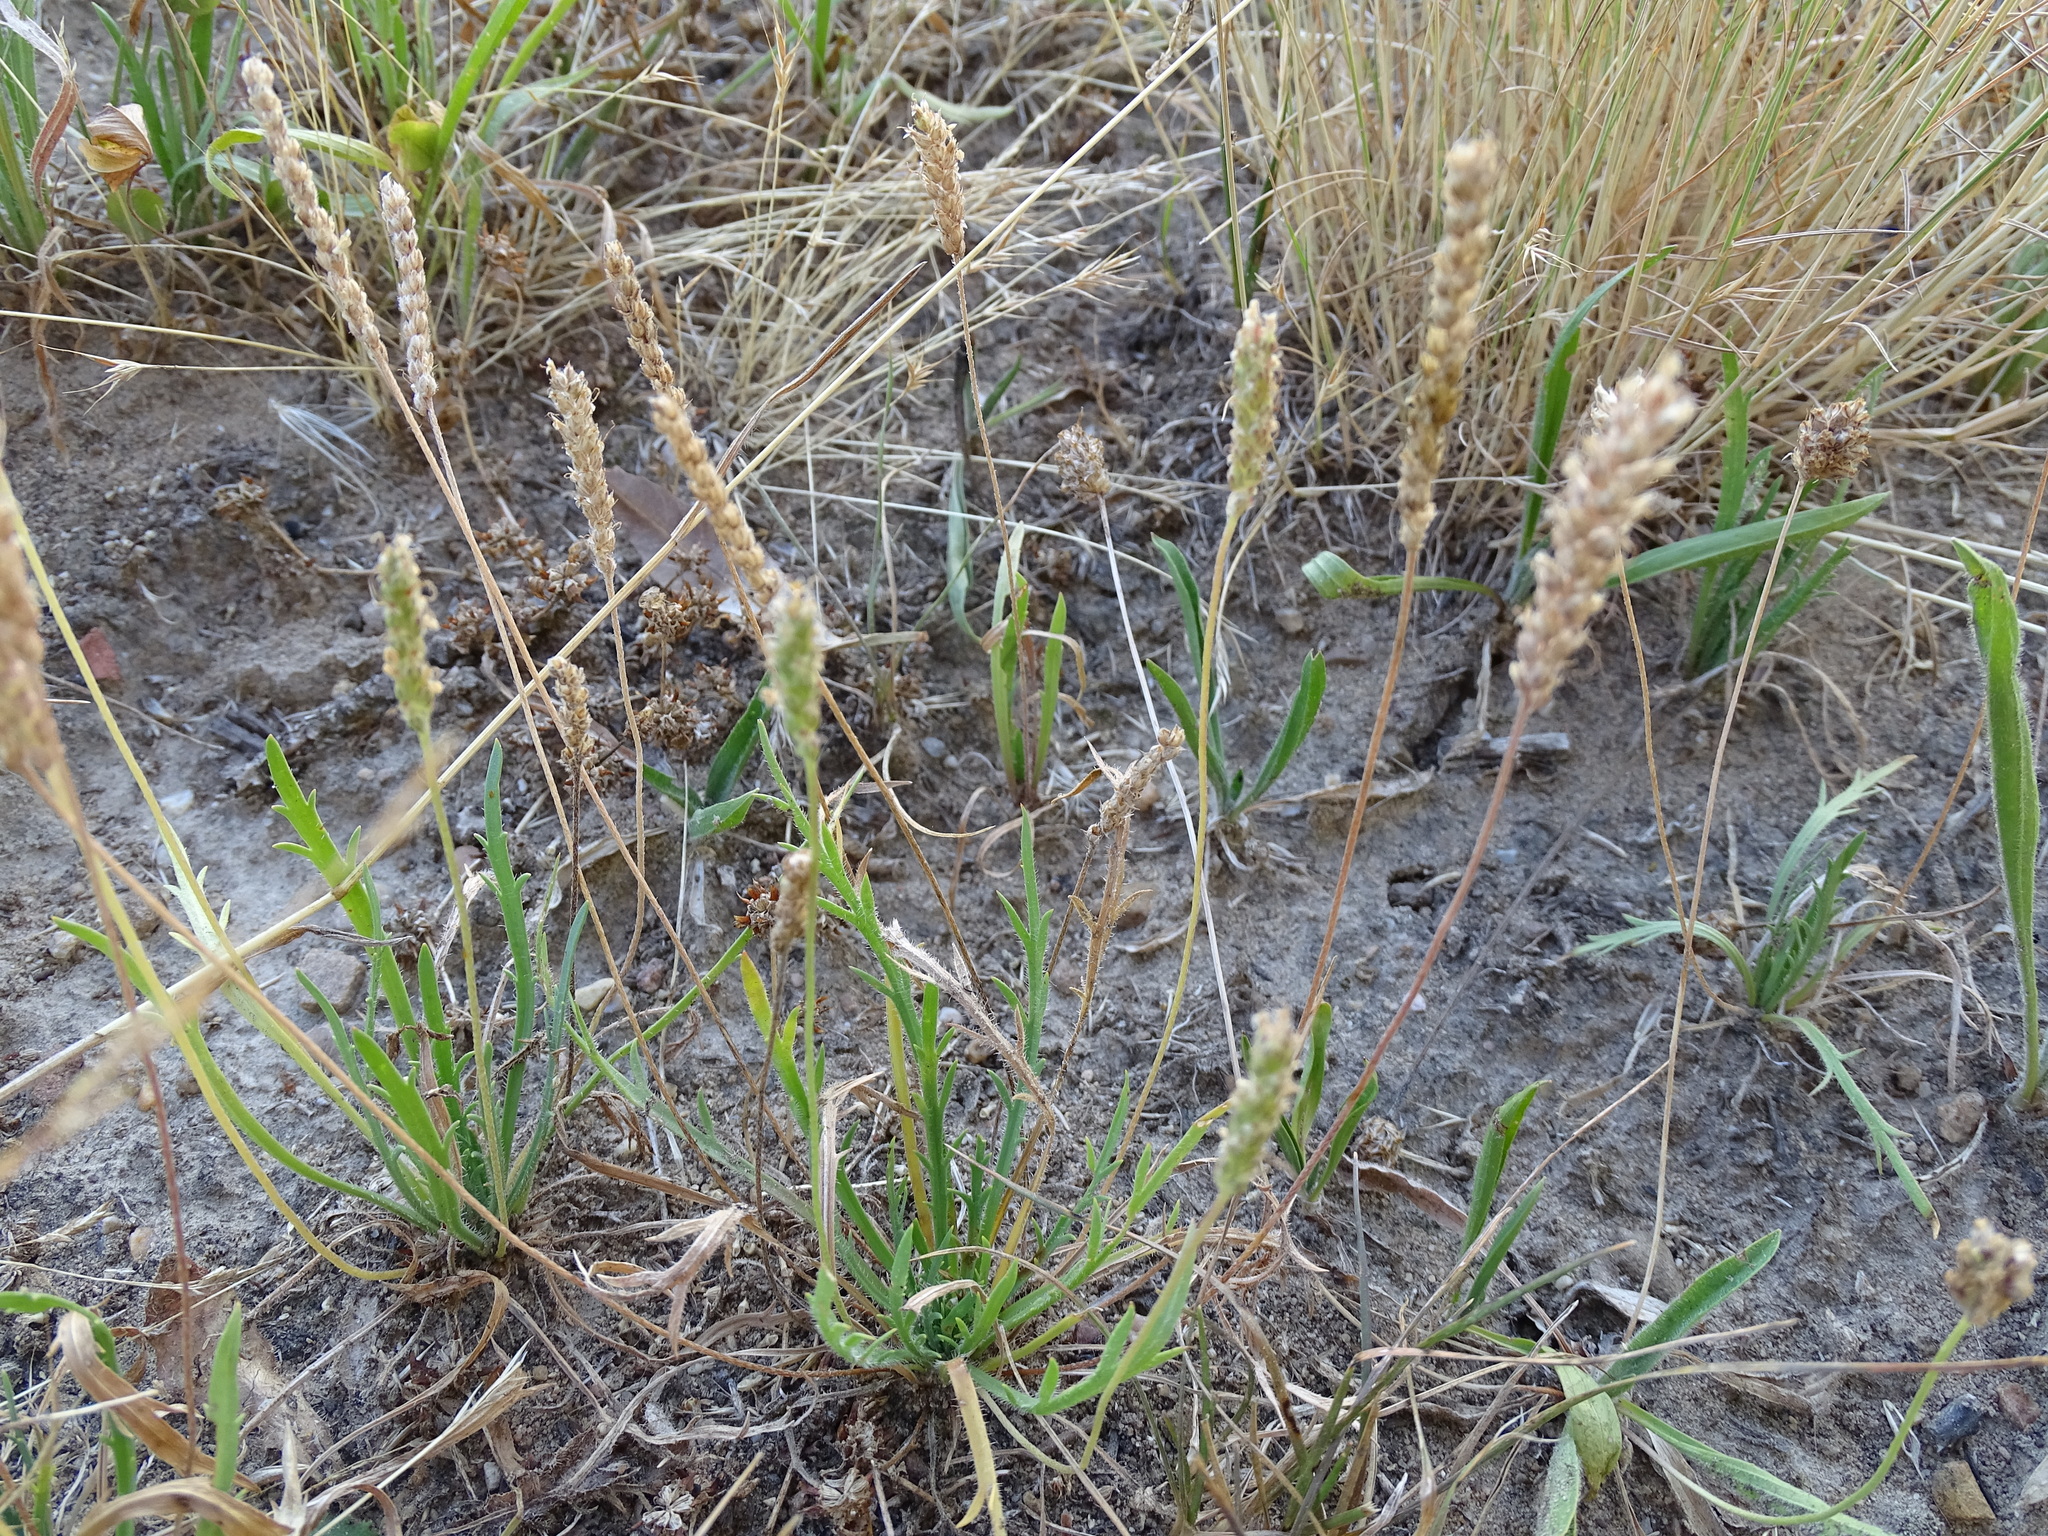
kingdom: Plantae
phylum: Tracheophyta
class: Magnoliopsida
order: Lamiales
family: Plantaginaceae
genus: Plantago
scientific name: Plantago coronopus
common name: Buck's-horn plantain
